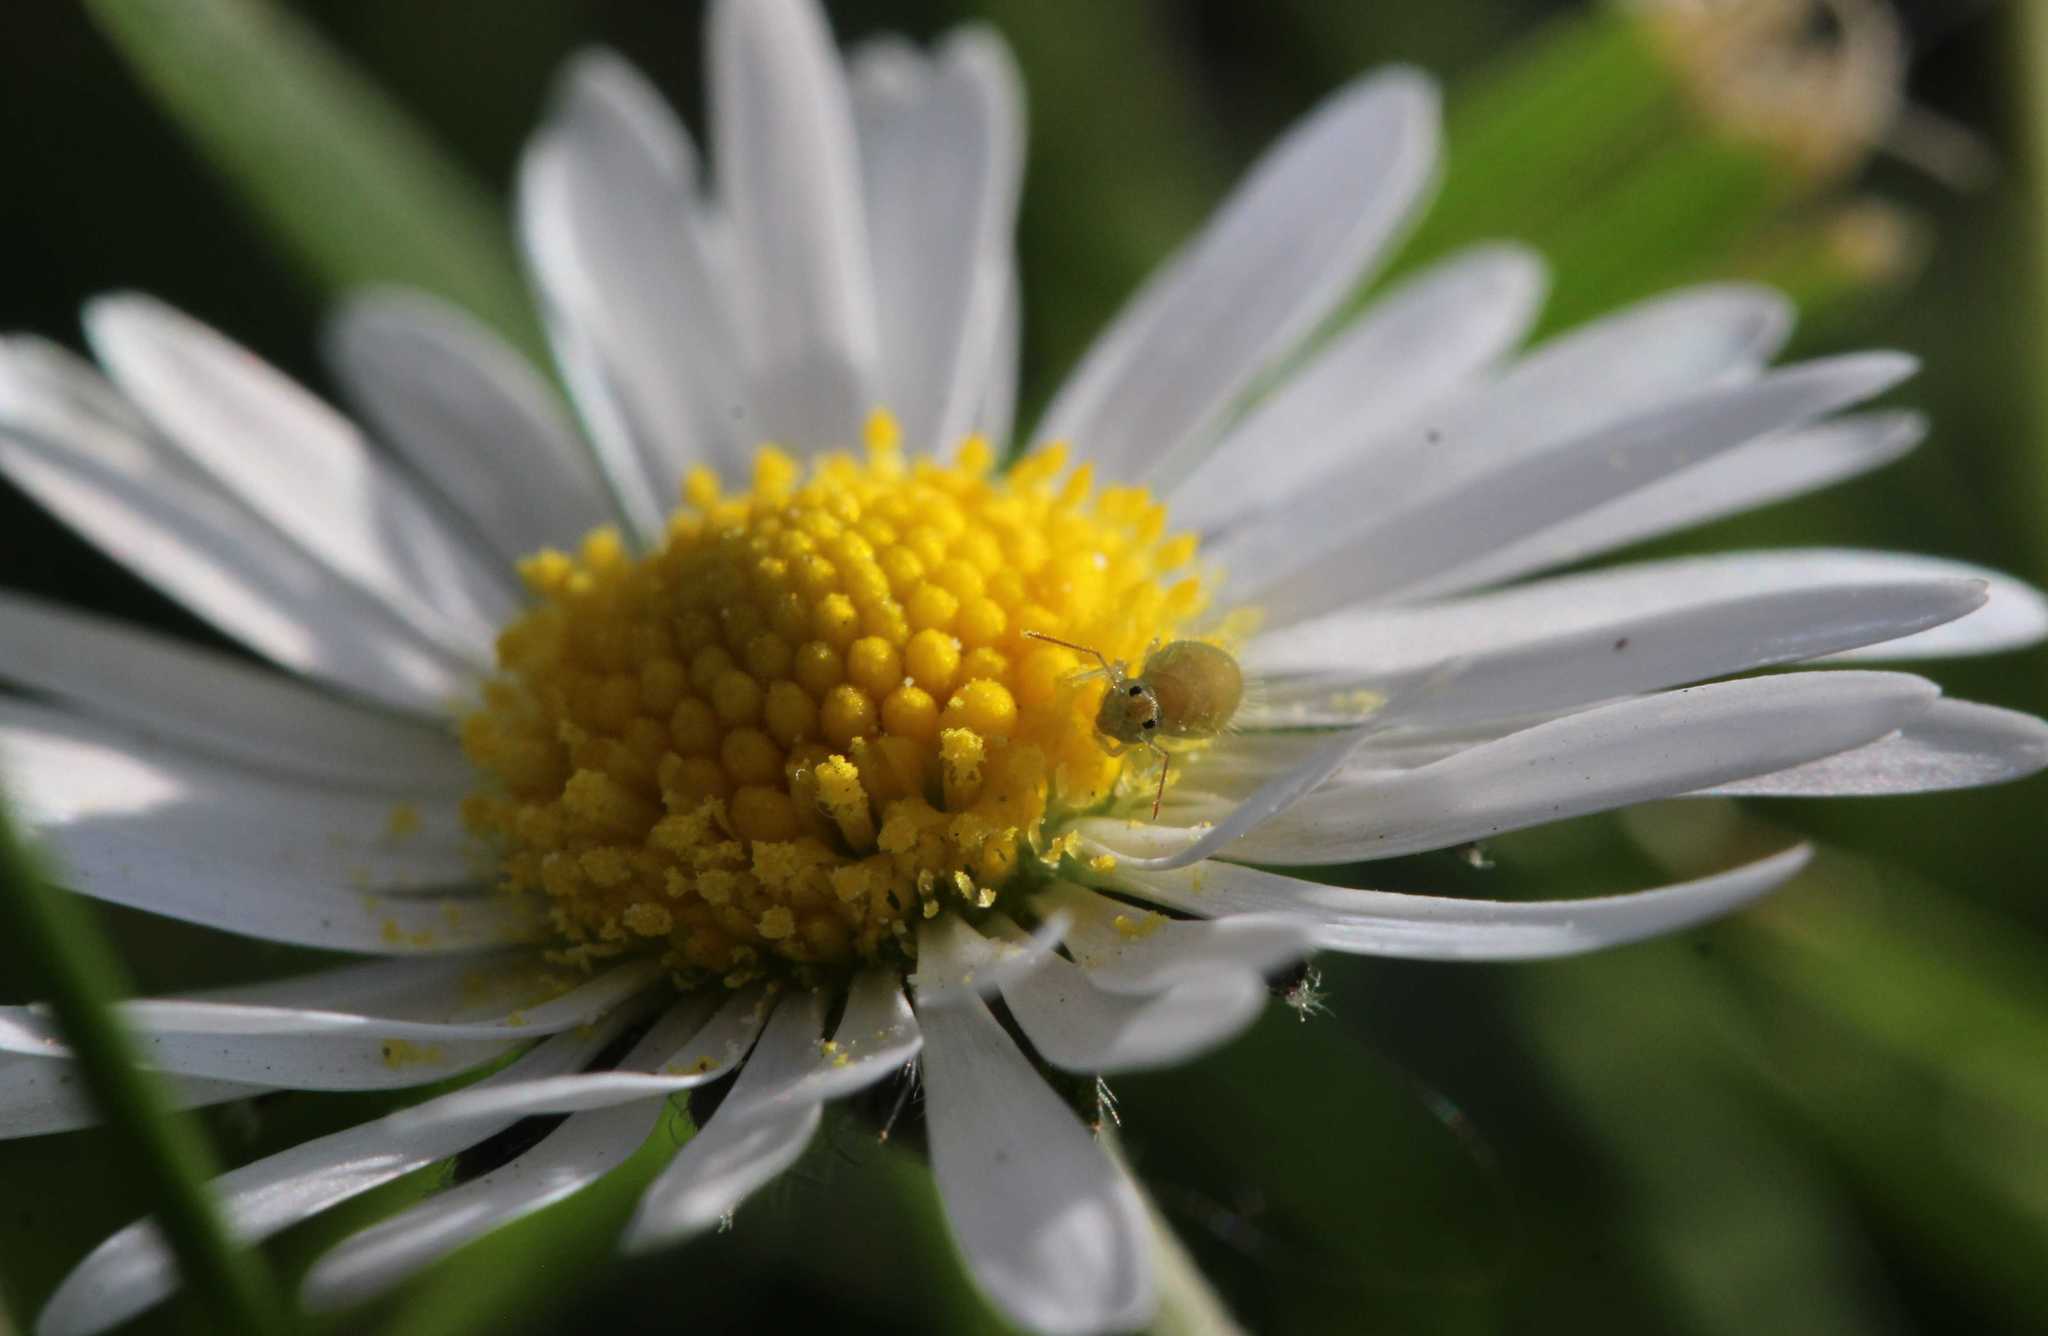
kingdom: Animalia
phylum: Arthropoda
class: Collembola
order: Symphypleona
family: Sminthuridae
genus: Sminthurus
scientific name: Sminthurus viridis
